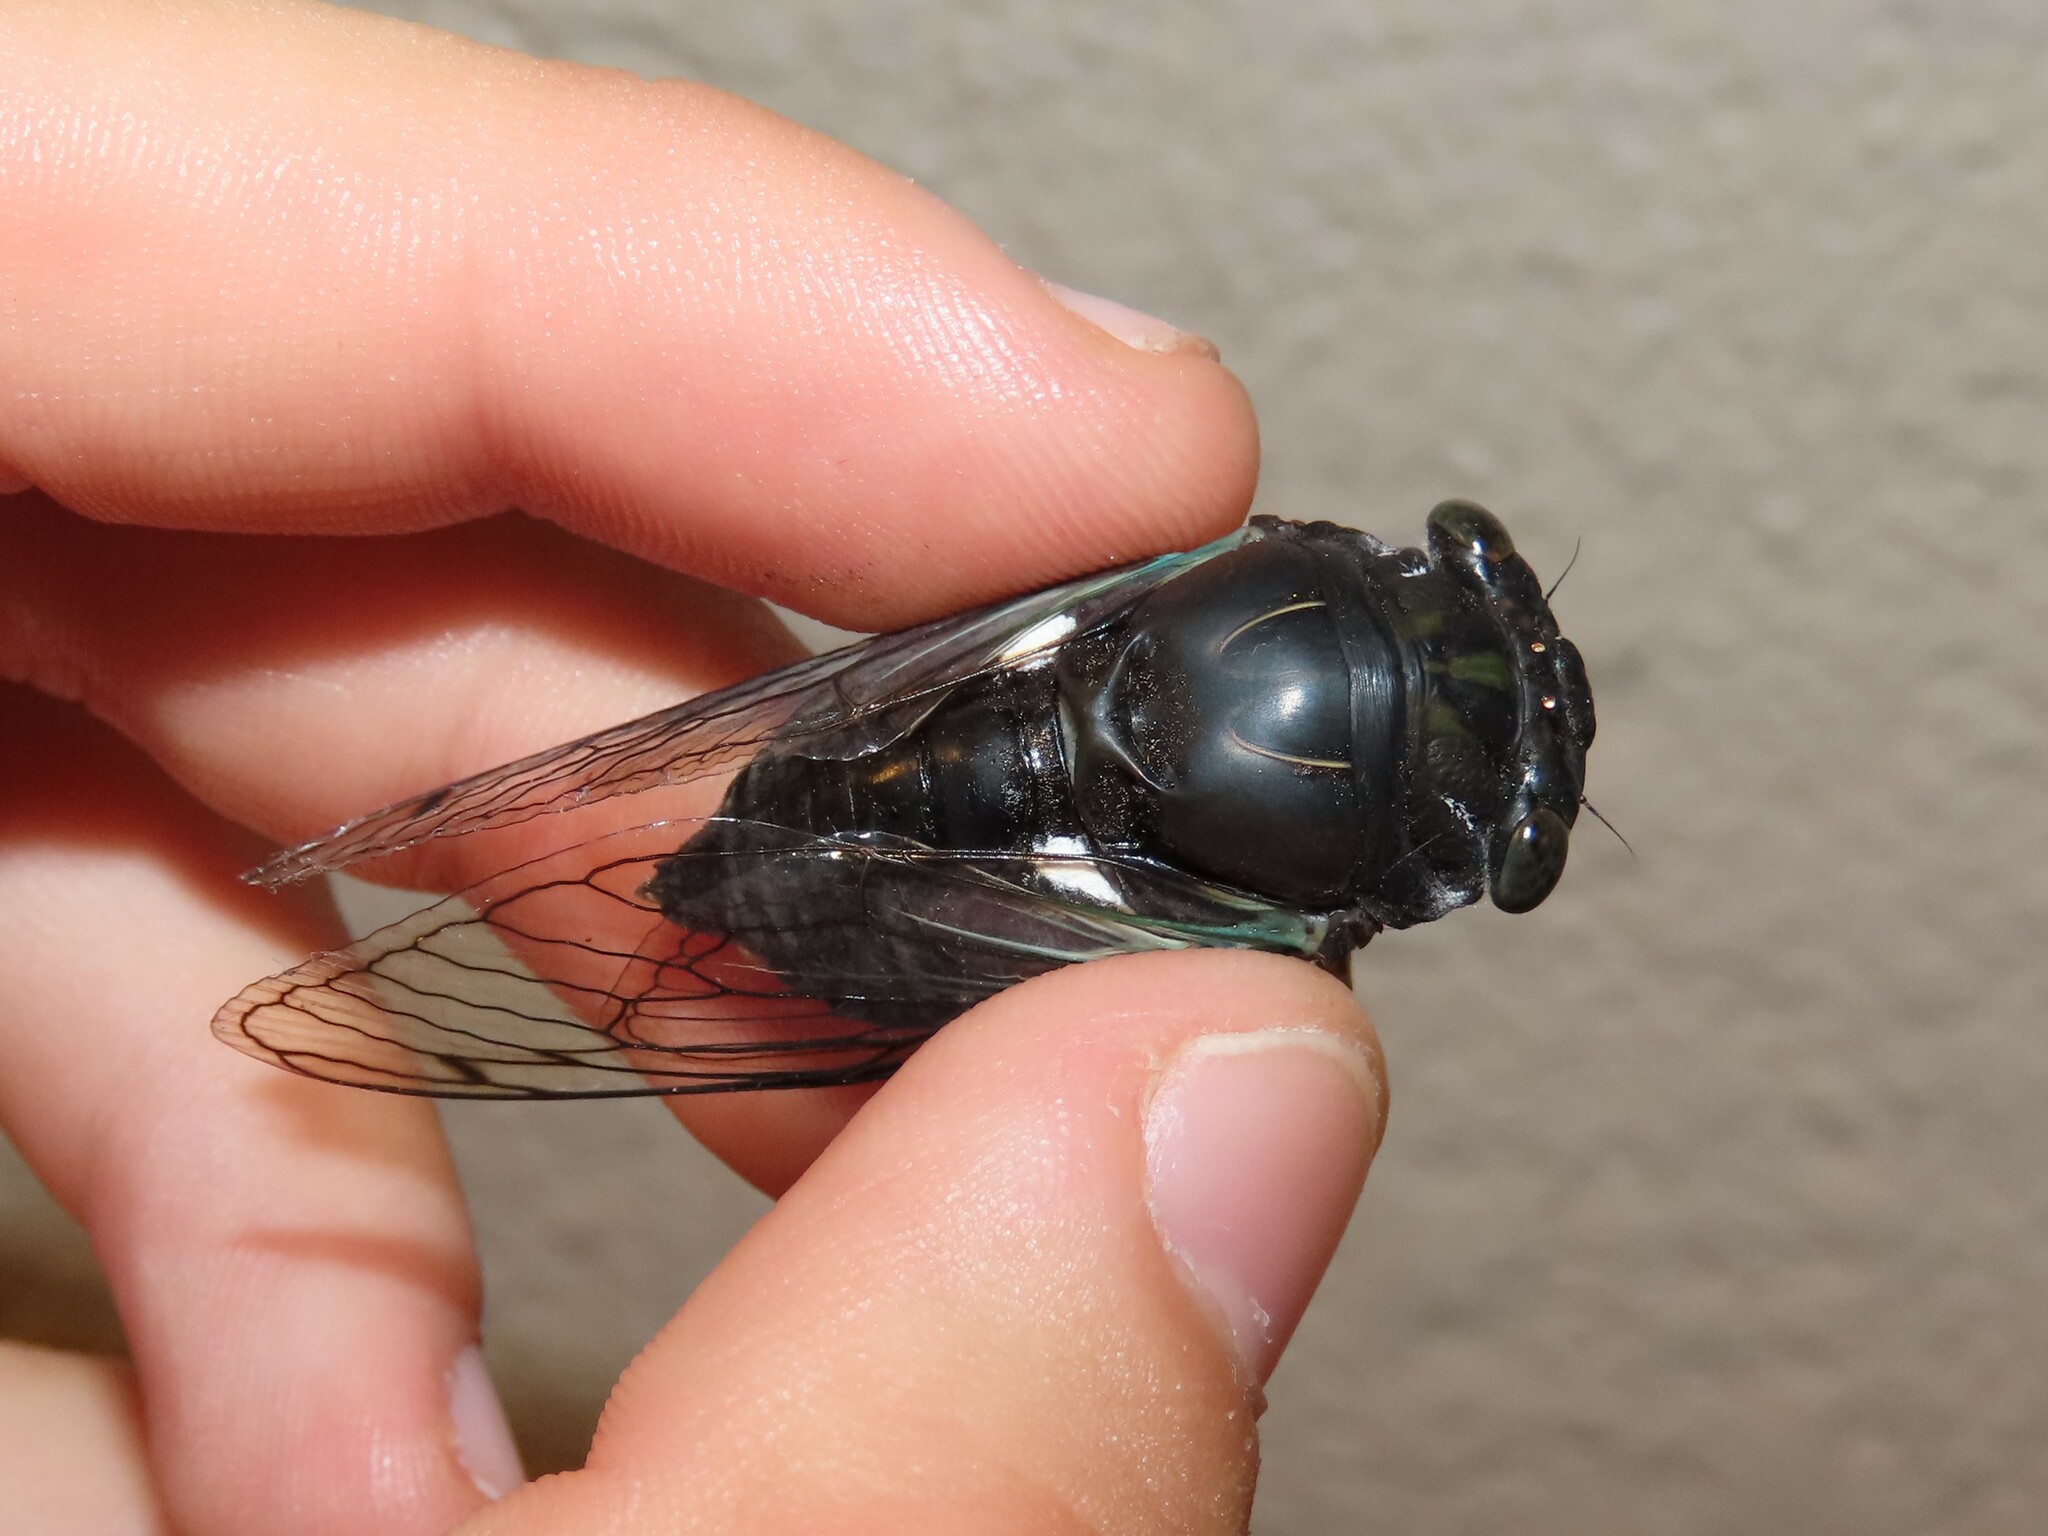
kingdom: Animalia
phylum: Arthropoda
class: Insecta
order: Hemiptera
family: Cicadidae
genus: Neotibicen
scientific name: Neotibicen tibicen
